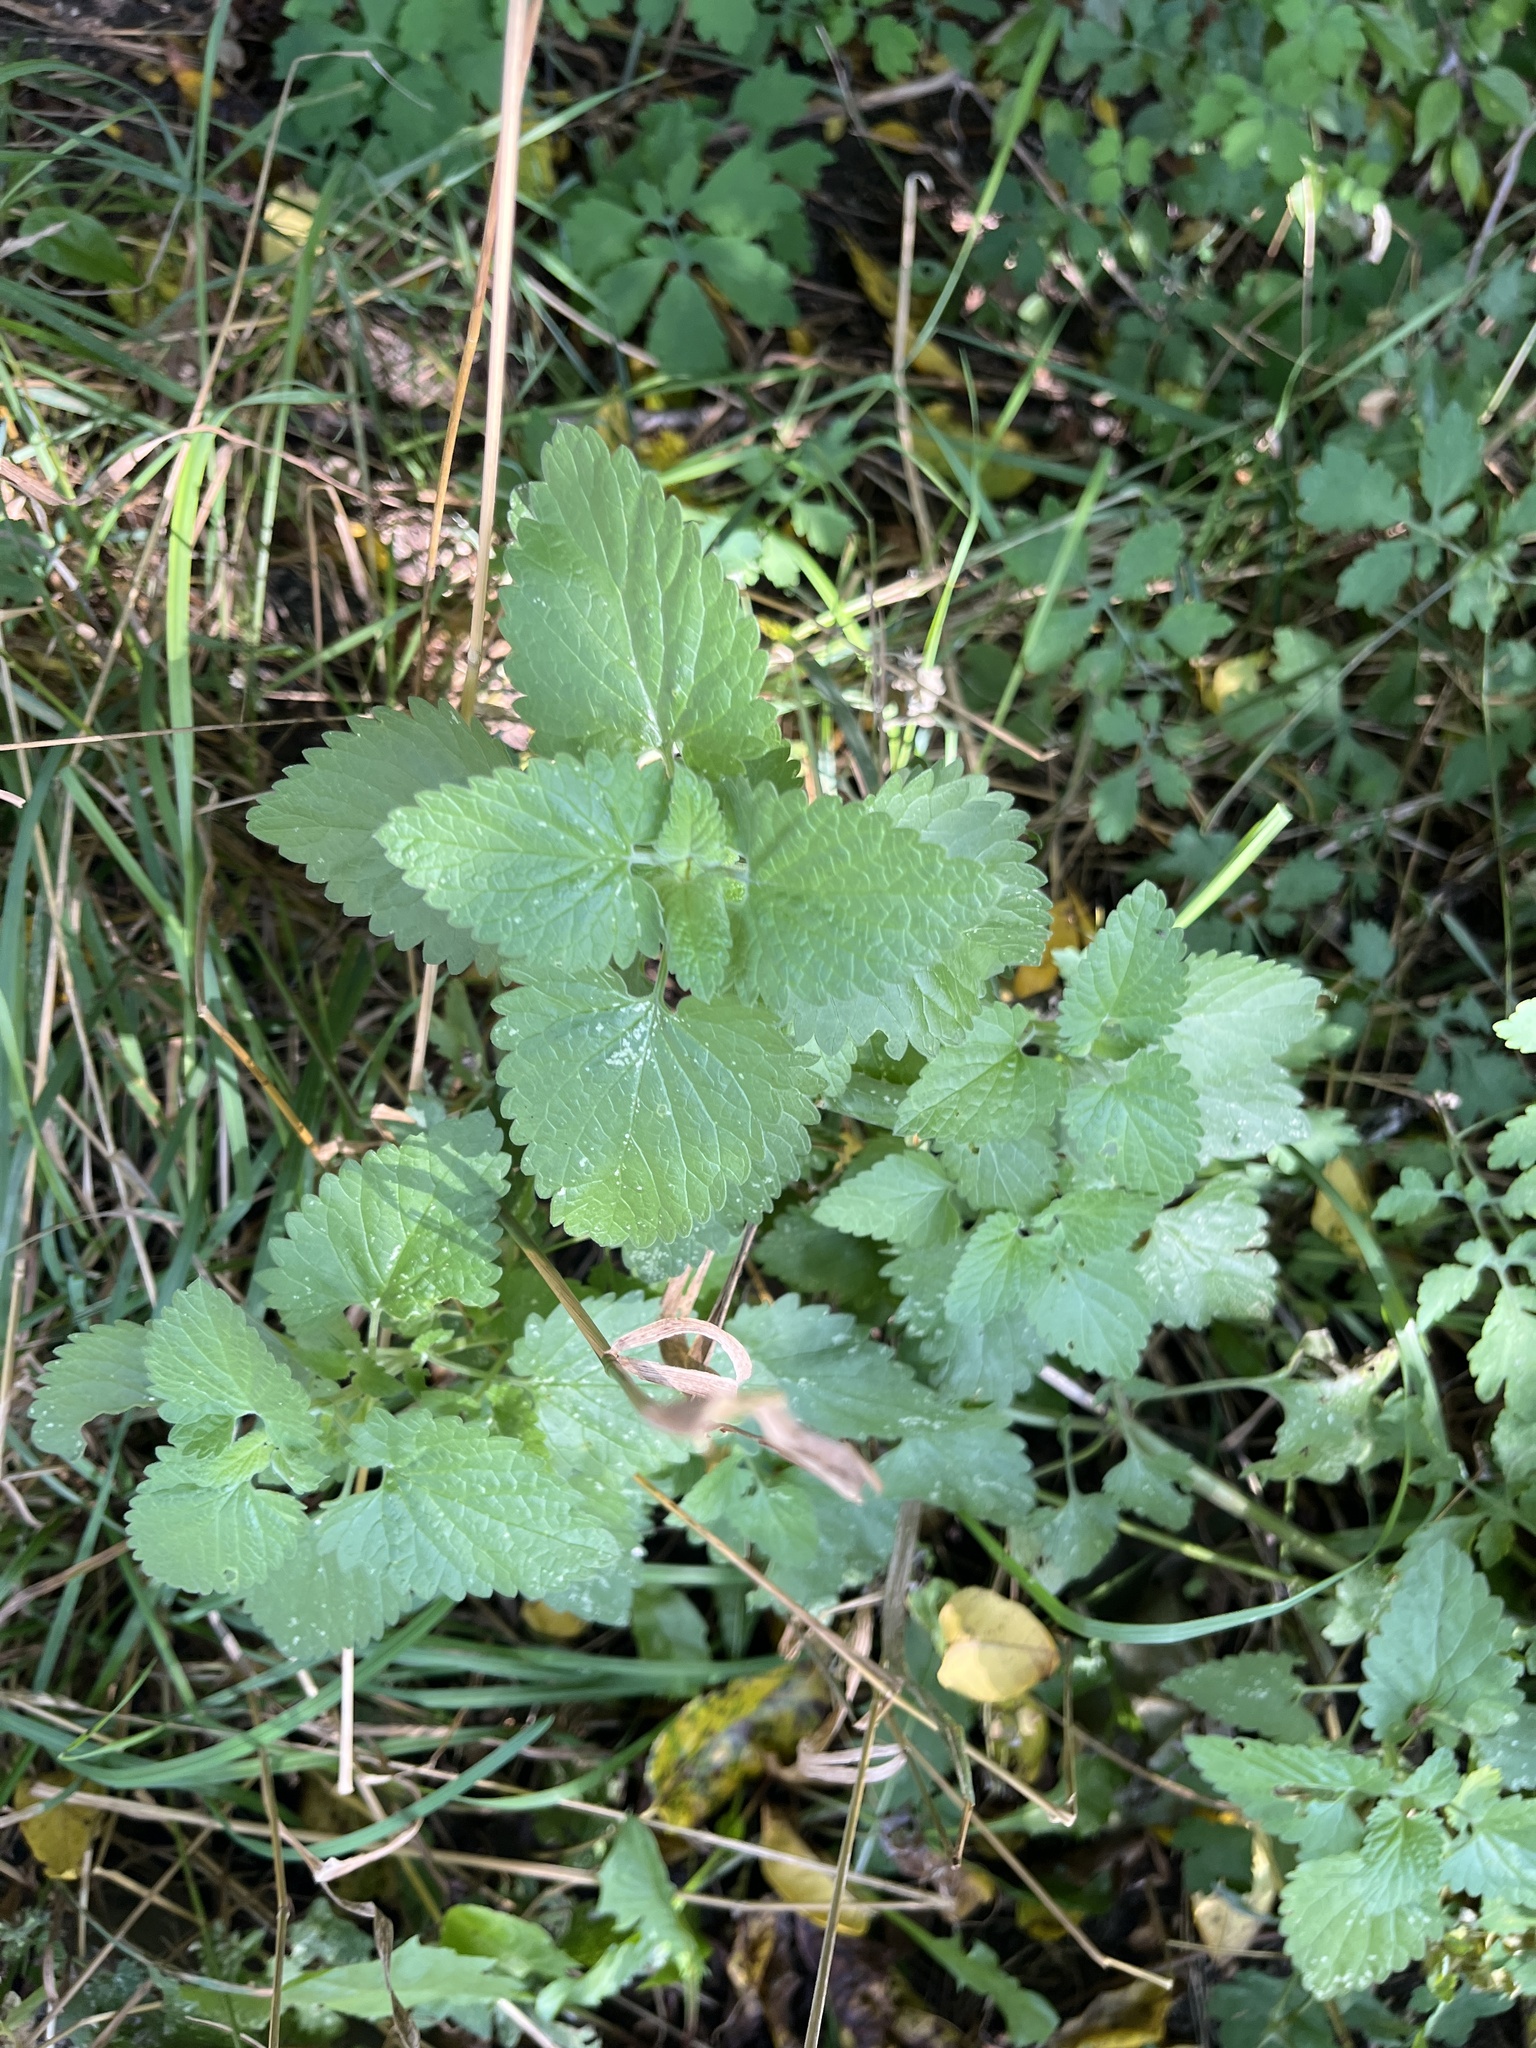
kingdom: Plantae
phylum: Tracheophyta
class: Magnoliopsida
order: Lamiales
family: Lamiaceae
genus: Nepeta
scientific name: Nepeta cataria
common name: Catnip
